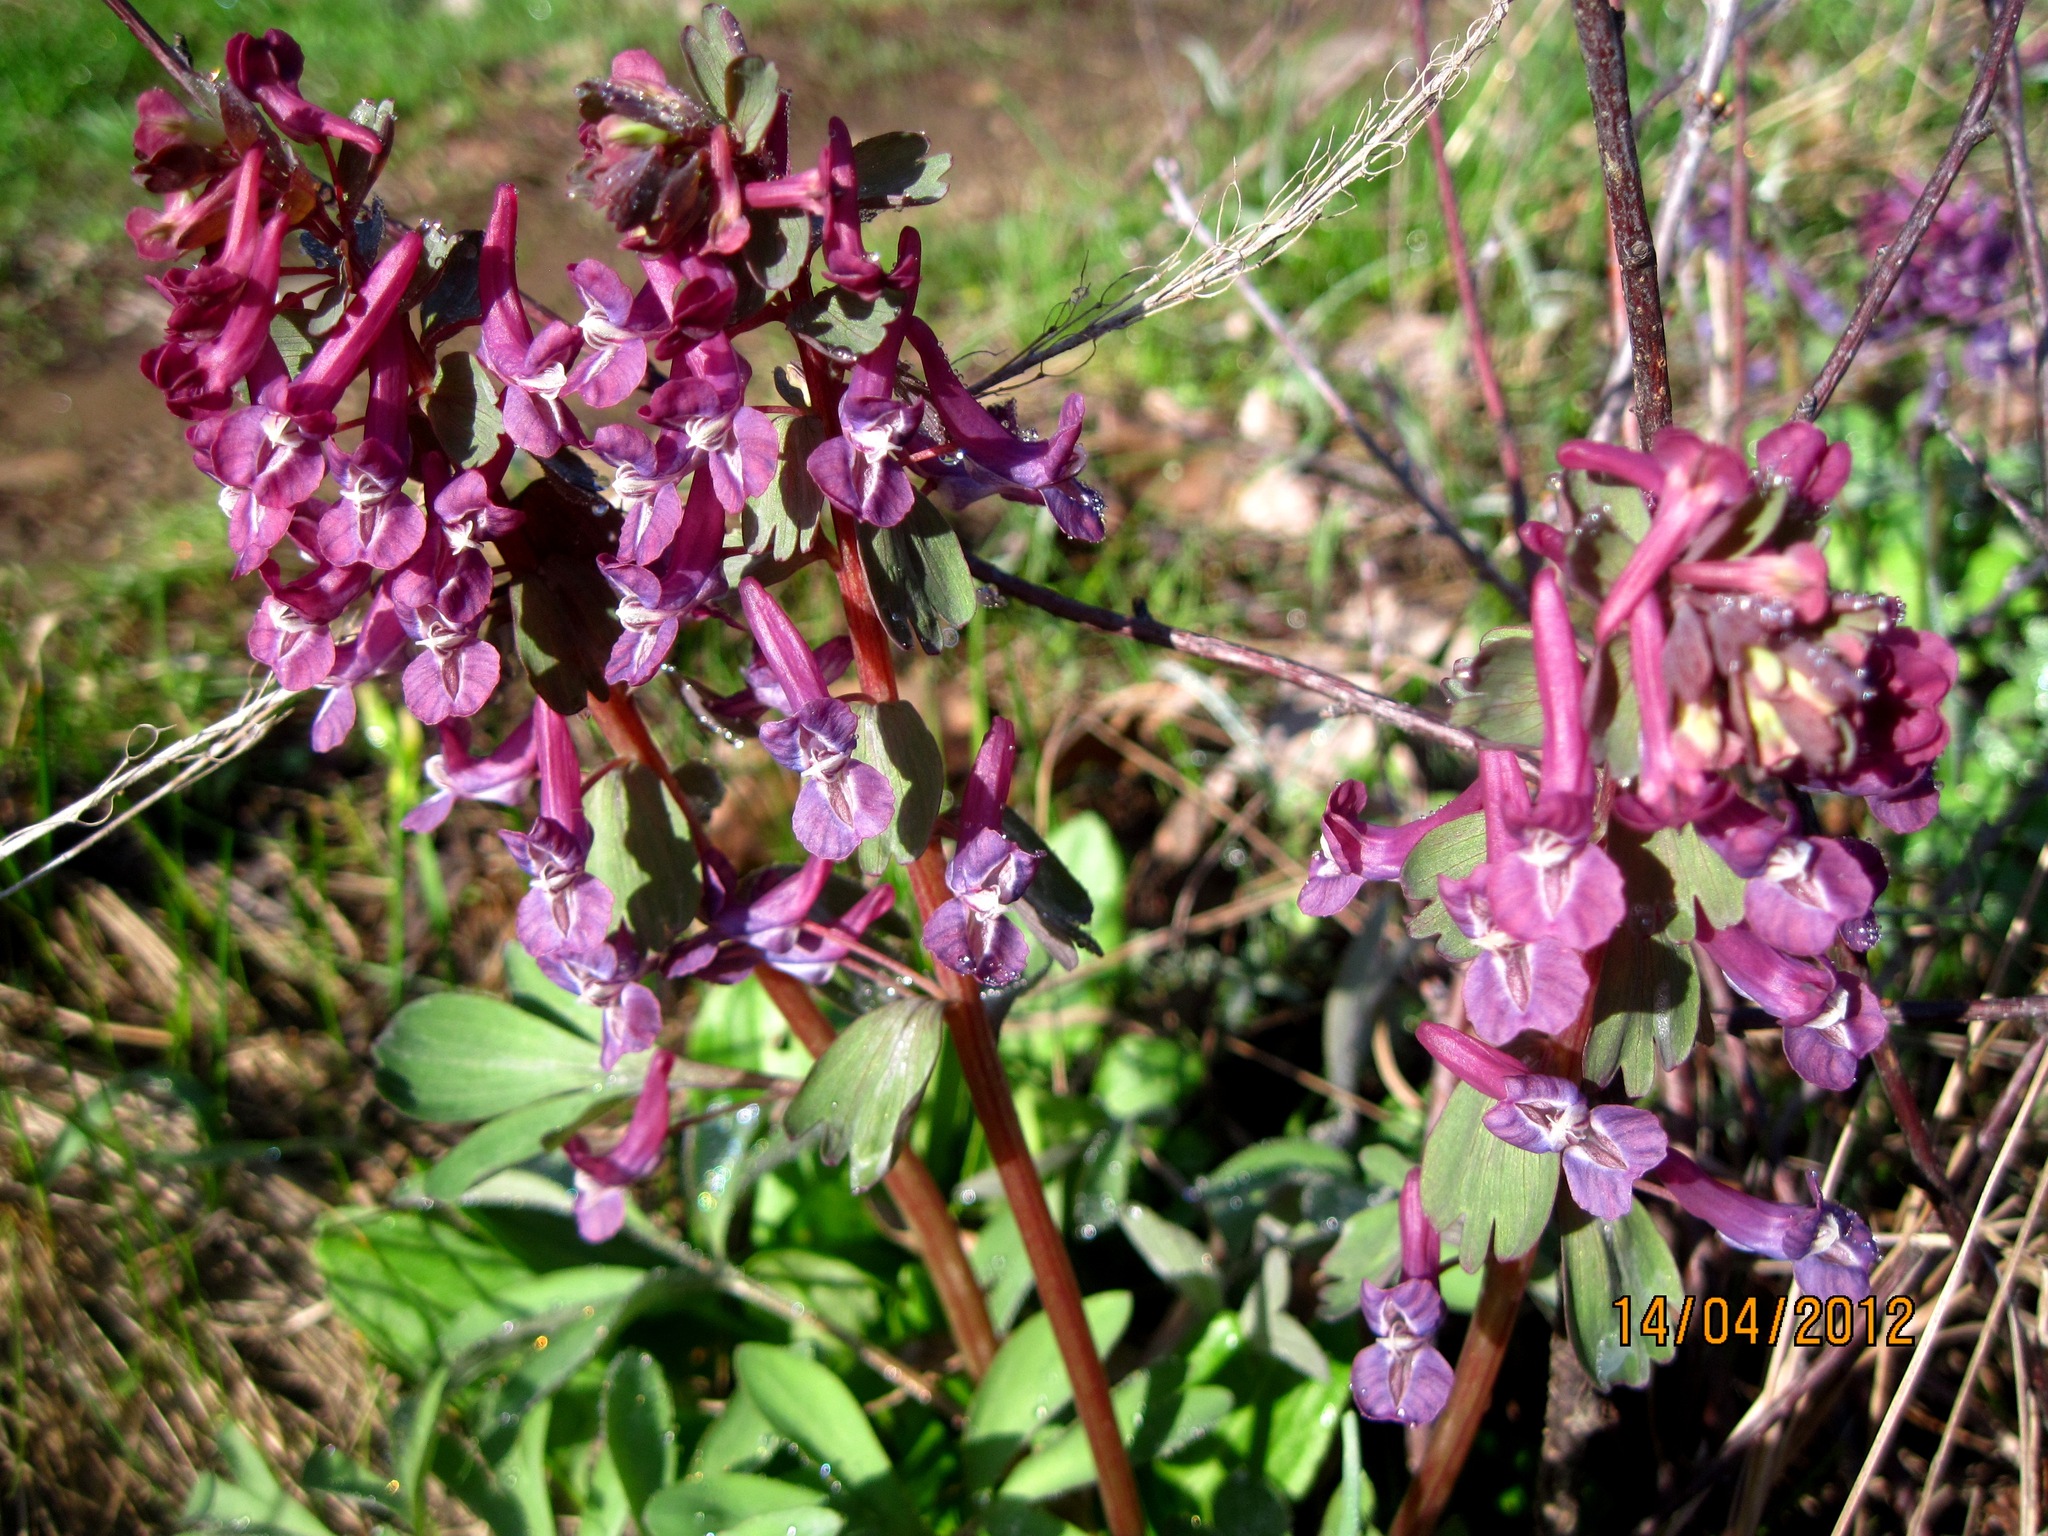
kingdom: Plantae
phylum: Tracheophyta
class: Magnoliopsida
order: Ranunculales
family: Papaveraceae
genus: Corydalis
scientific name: Corydalis solida
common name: Bird-in-a-bush
